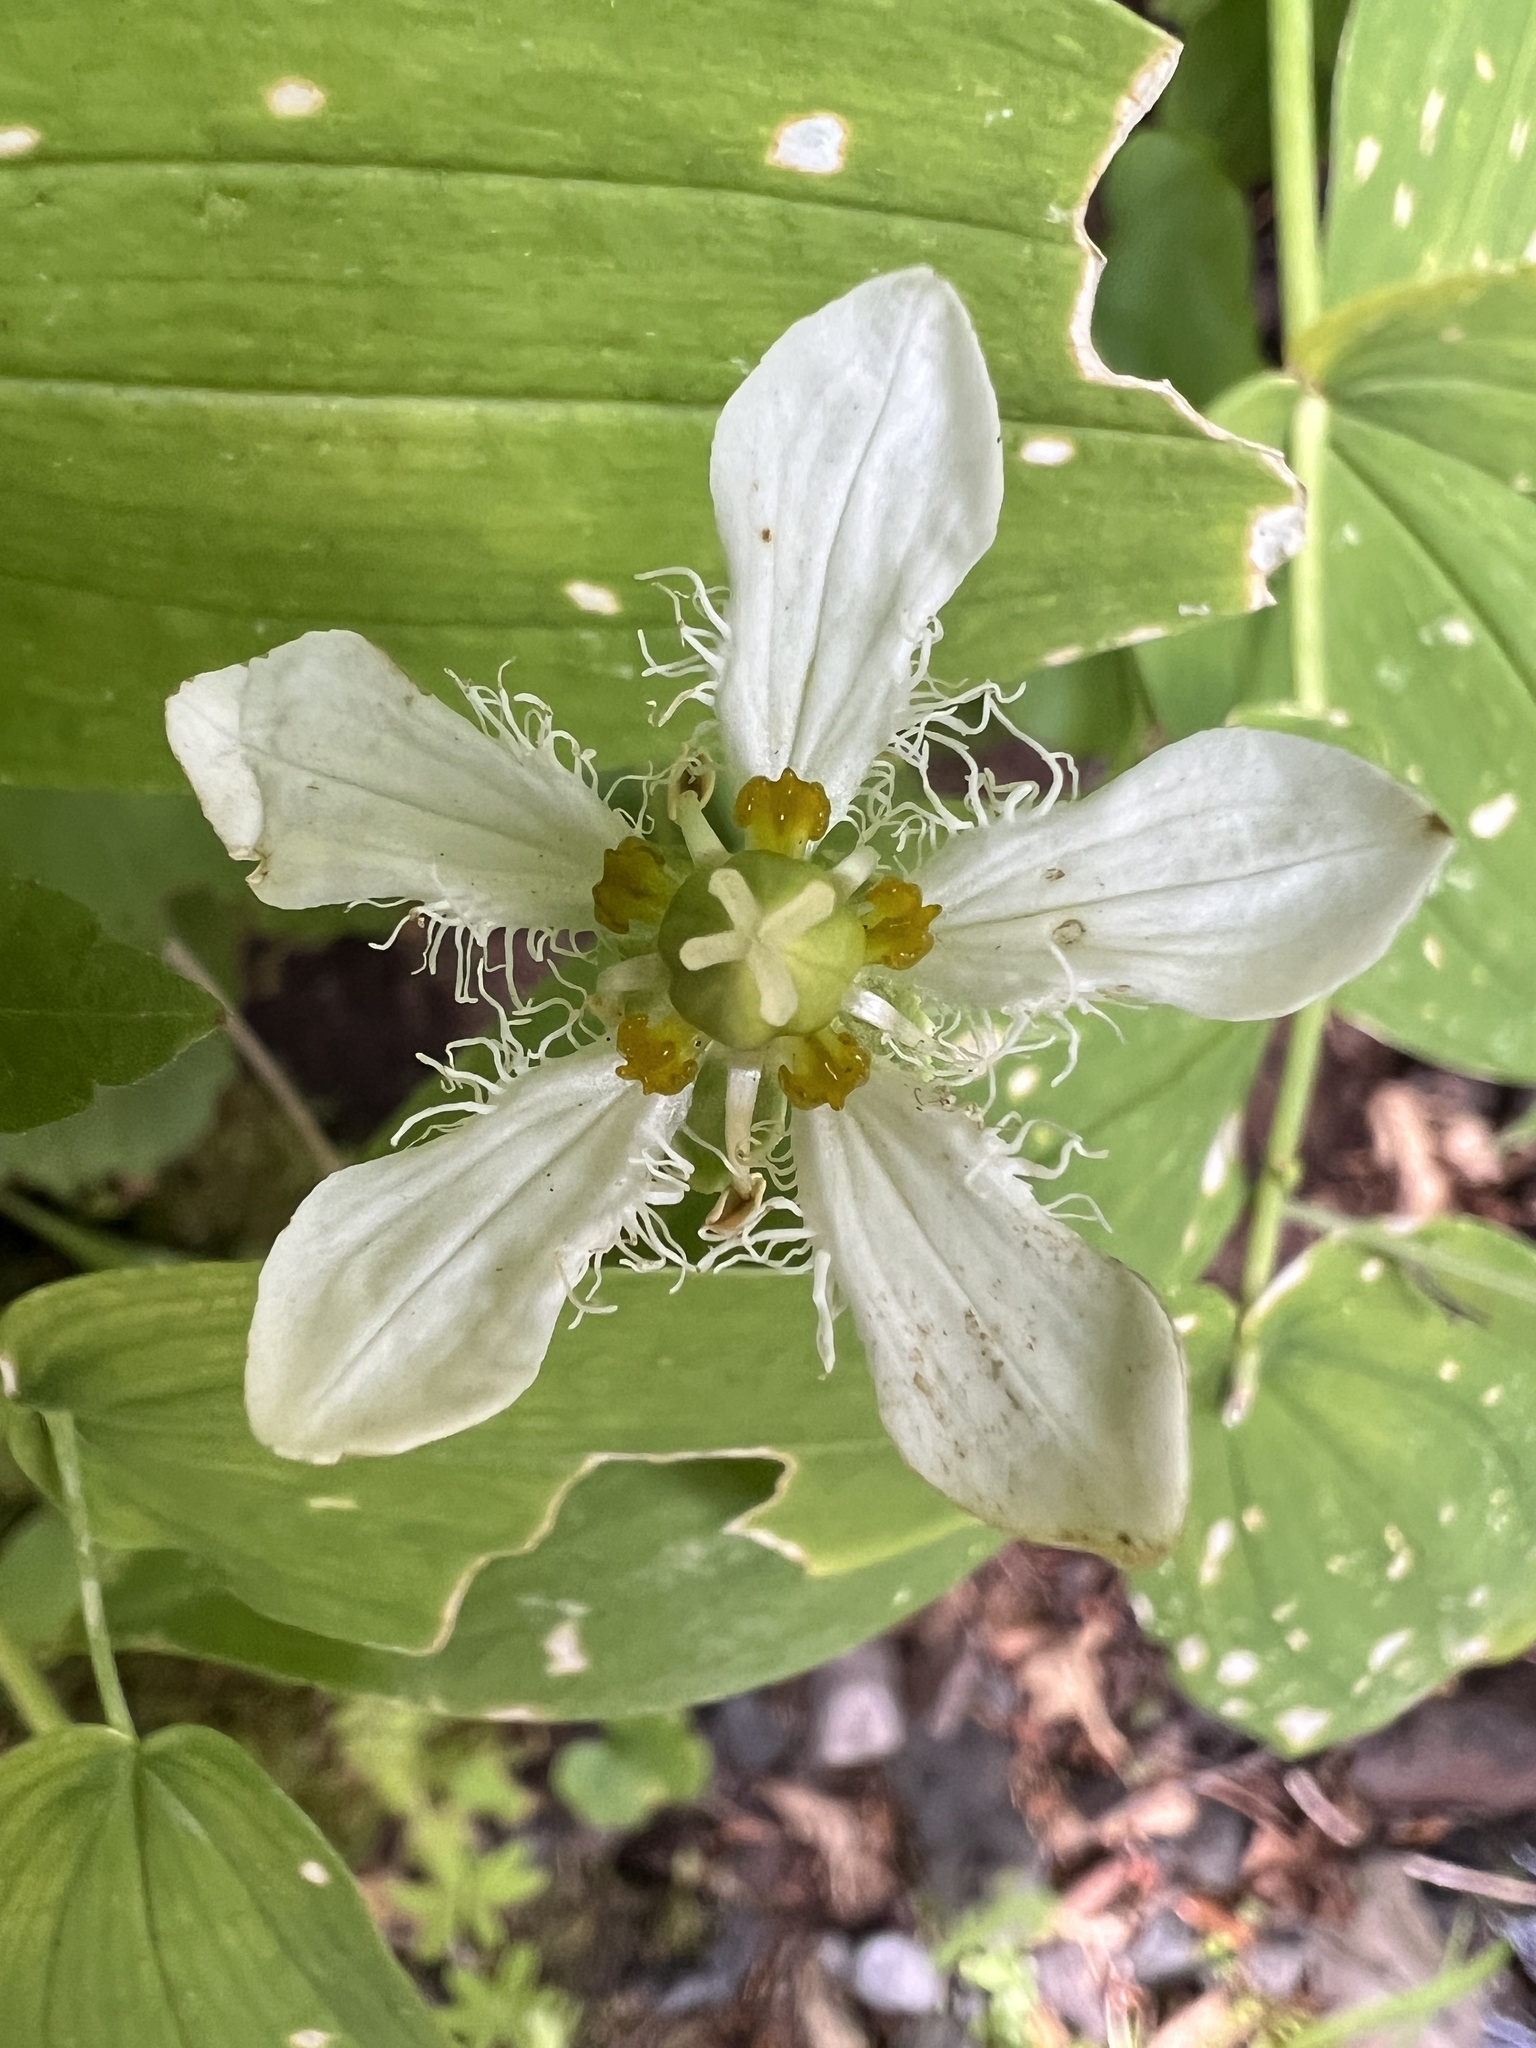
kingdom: Plantae
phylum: Tracheophyta
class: Magnoliopsida
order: Celastrales
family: Parnassiaceae
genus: Parnassia
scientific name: Parnassia fimbriata
